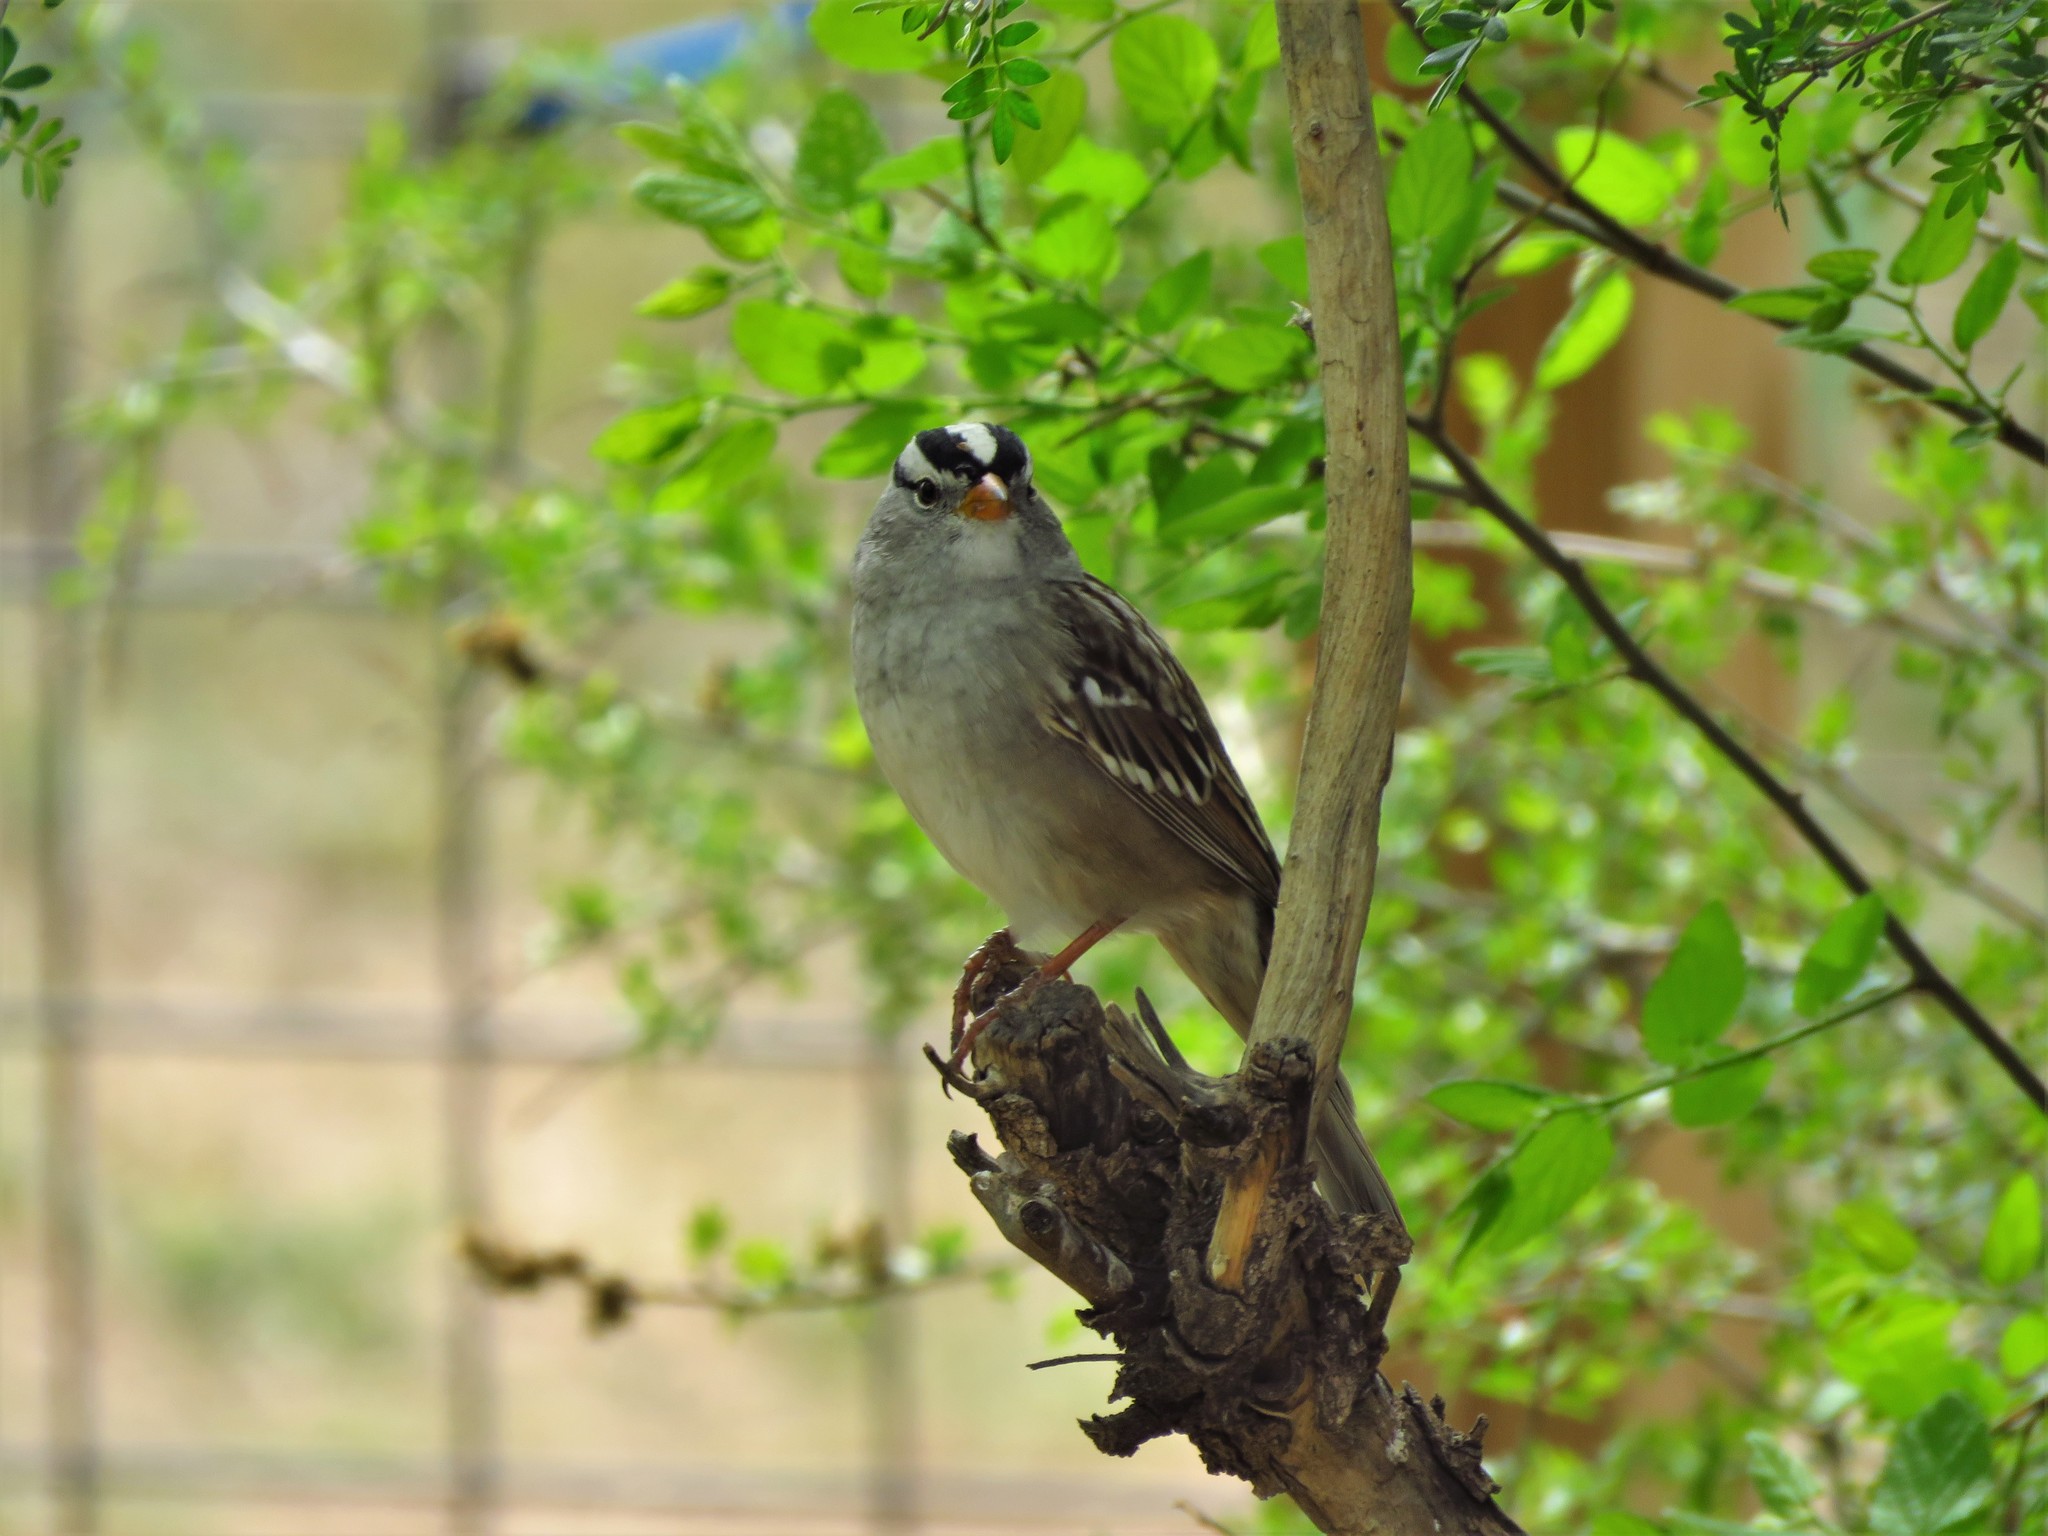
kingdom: Animalia
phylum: Chordata
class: Aves
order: Passeriformes
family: Passerellidae
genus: Zonotrichia
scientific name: Zonotrichia leucophrys
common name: White-crowned sparrow
